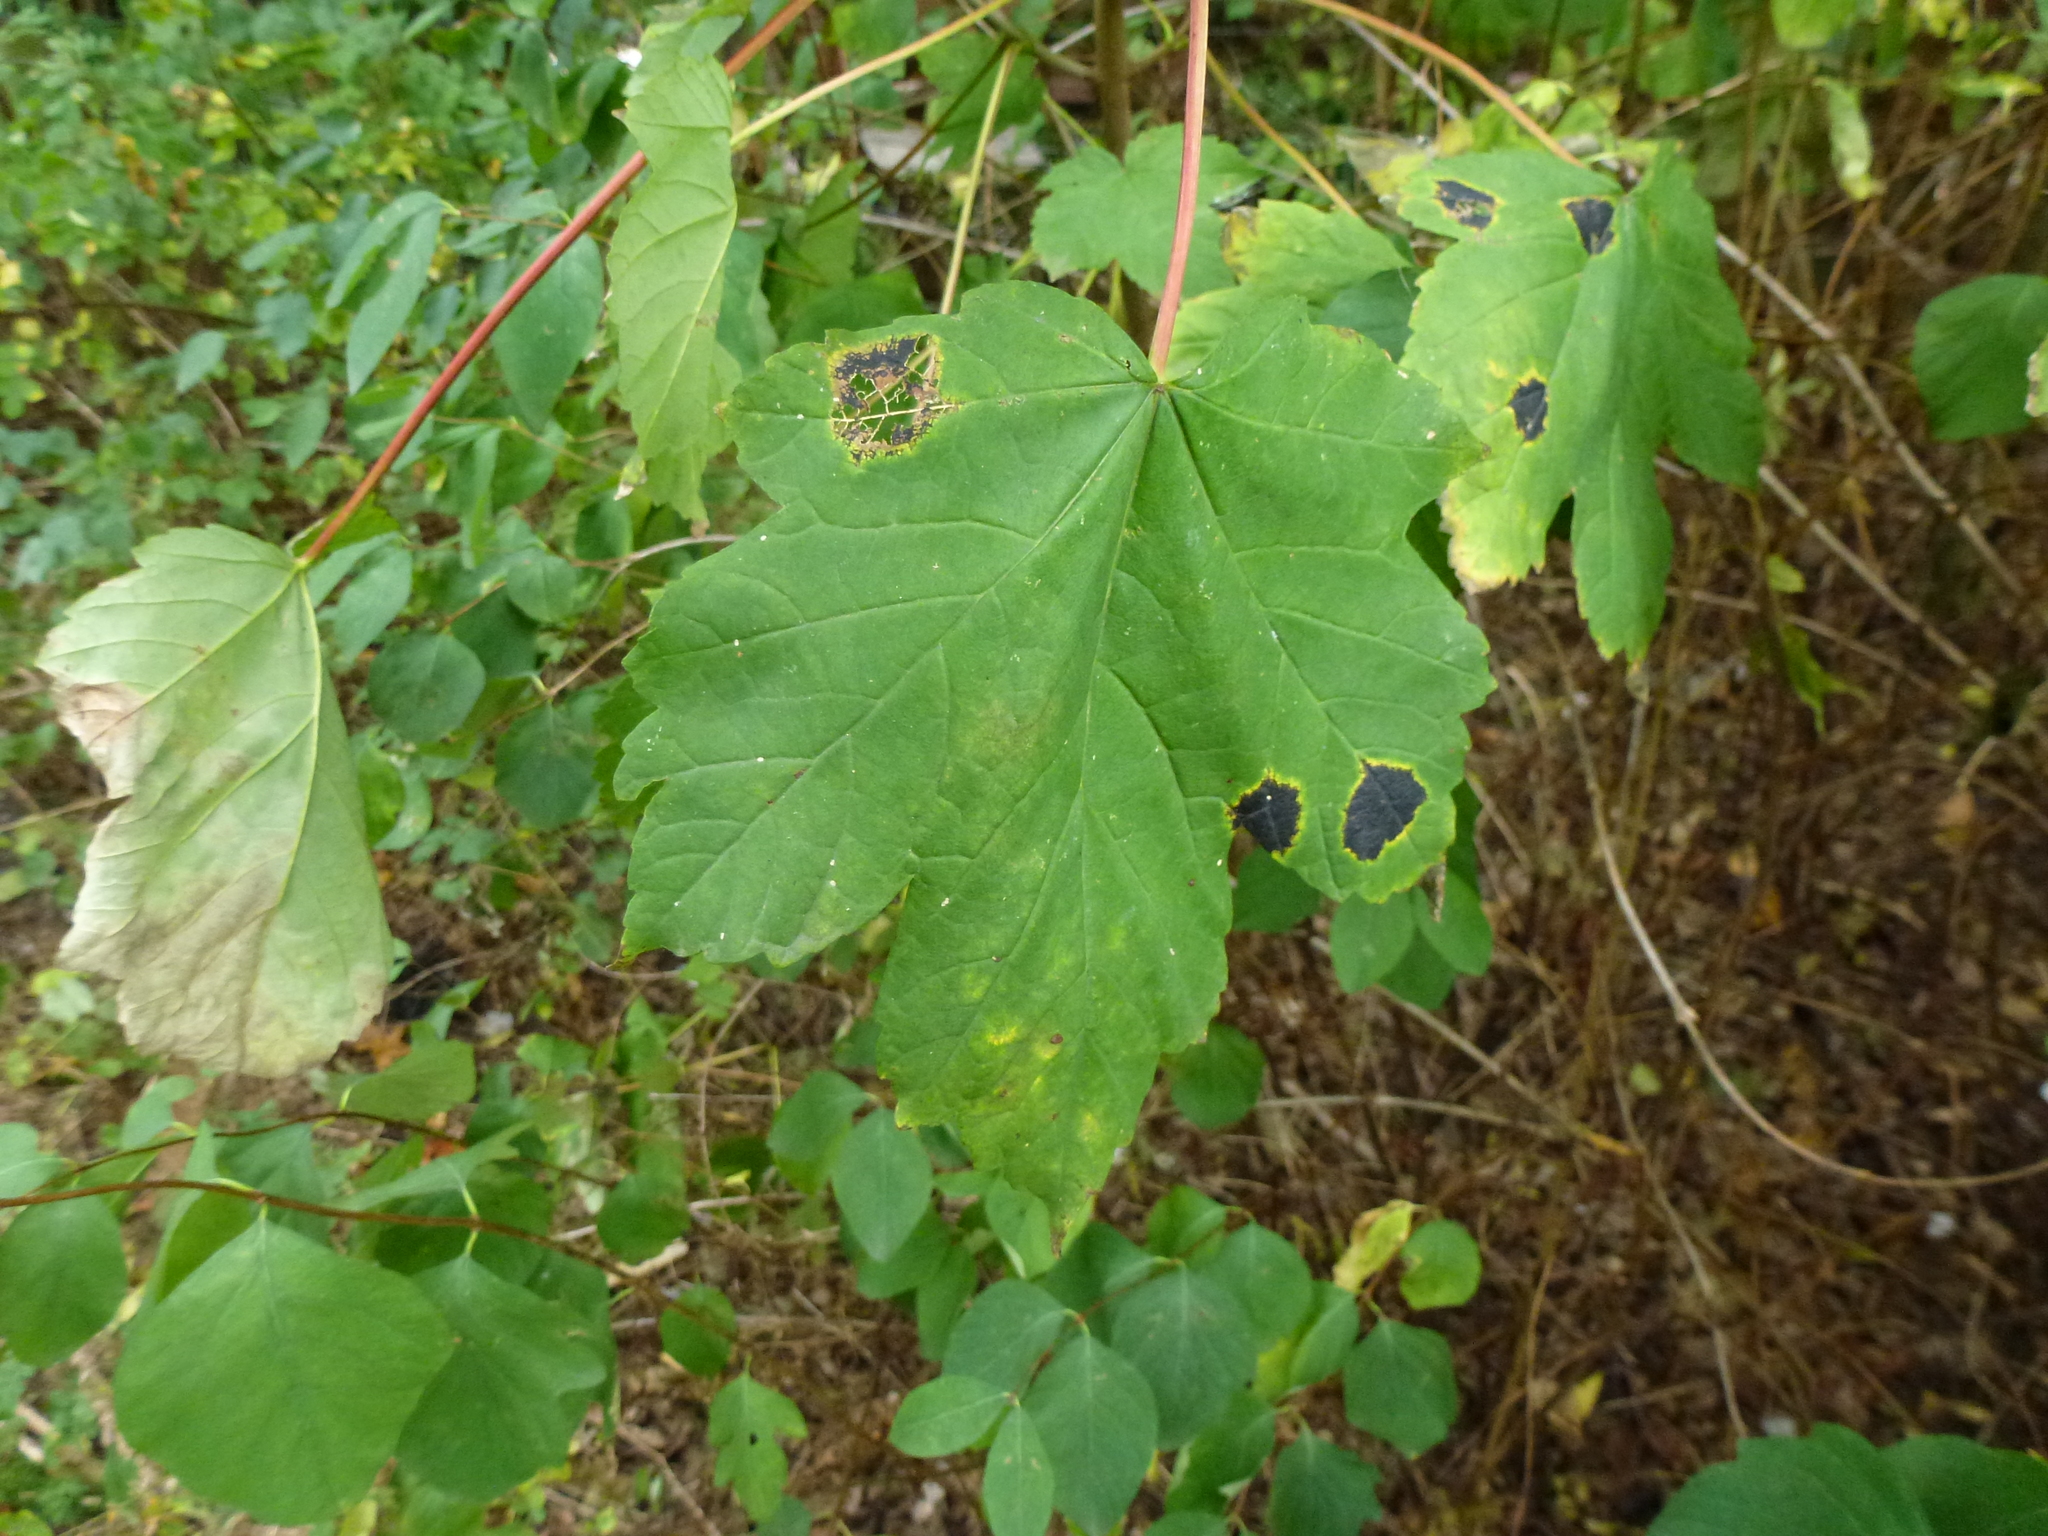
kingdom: Fungi
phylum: Ascomycota
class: Leotiomycetes
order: Rhytismatales
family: Rhytismataceae
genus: Rhytisma
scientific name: Rhytisma acerinum
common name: European tar spot
